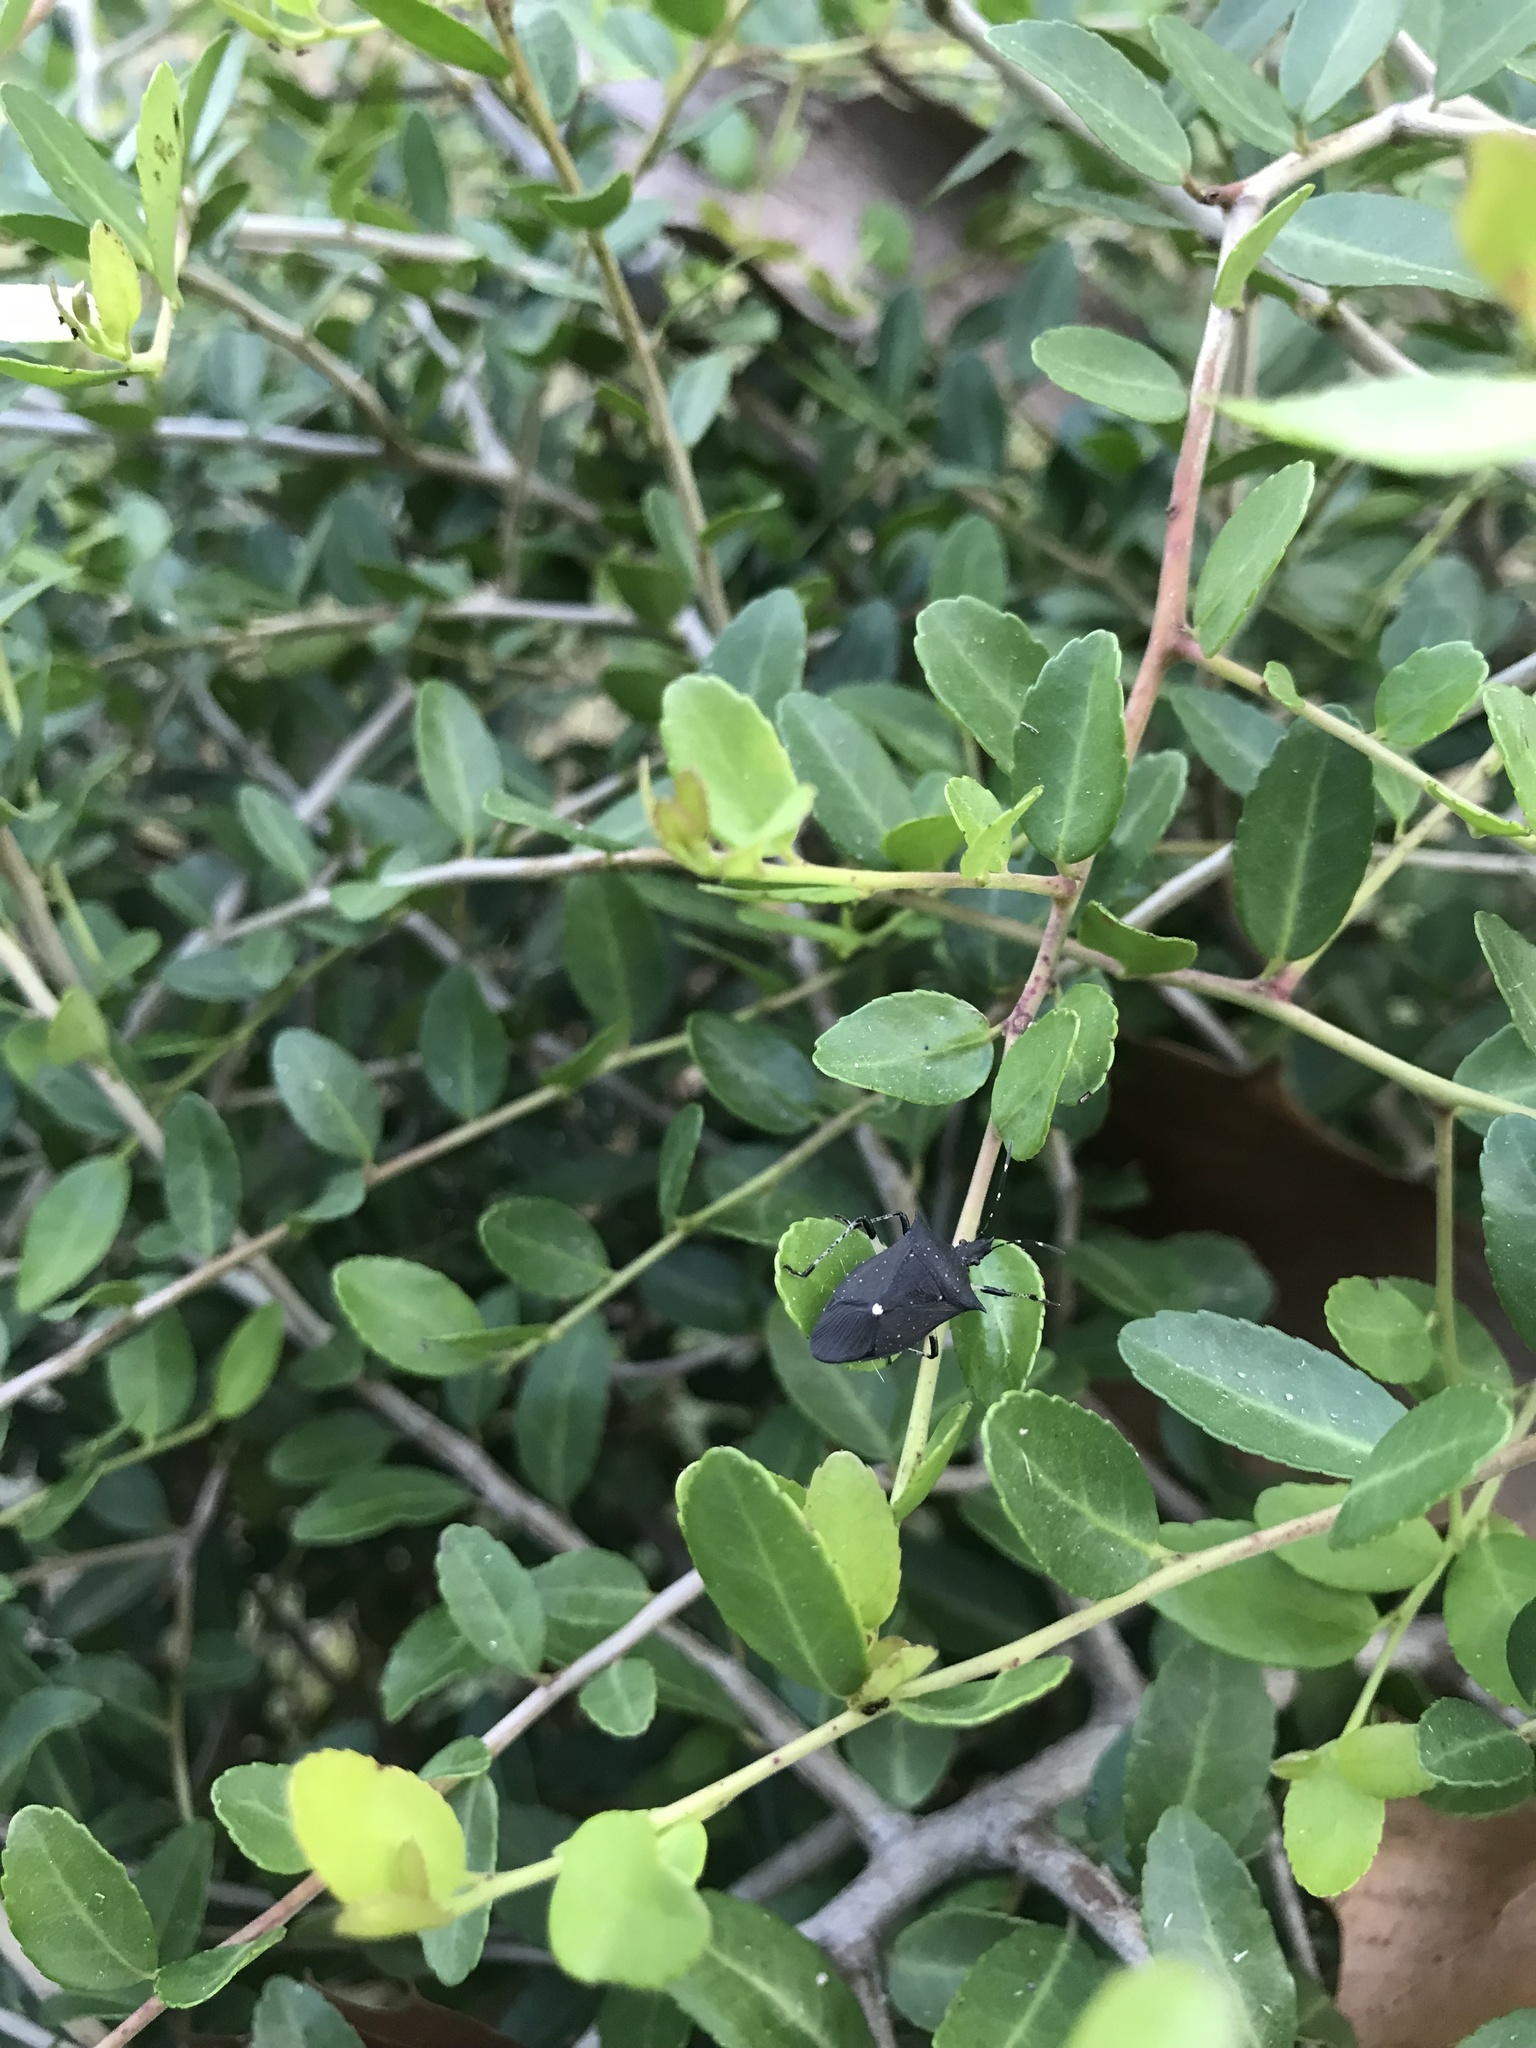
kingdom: Animalia
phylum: Arthropoda
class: Insecta
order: Hemiptera
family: Pentatomidae
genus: Proxys
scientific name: Proxys punctulatus
